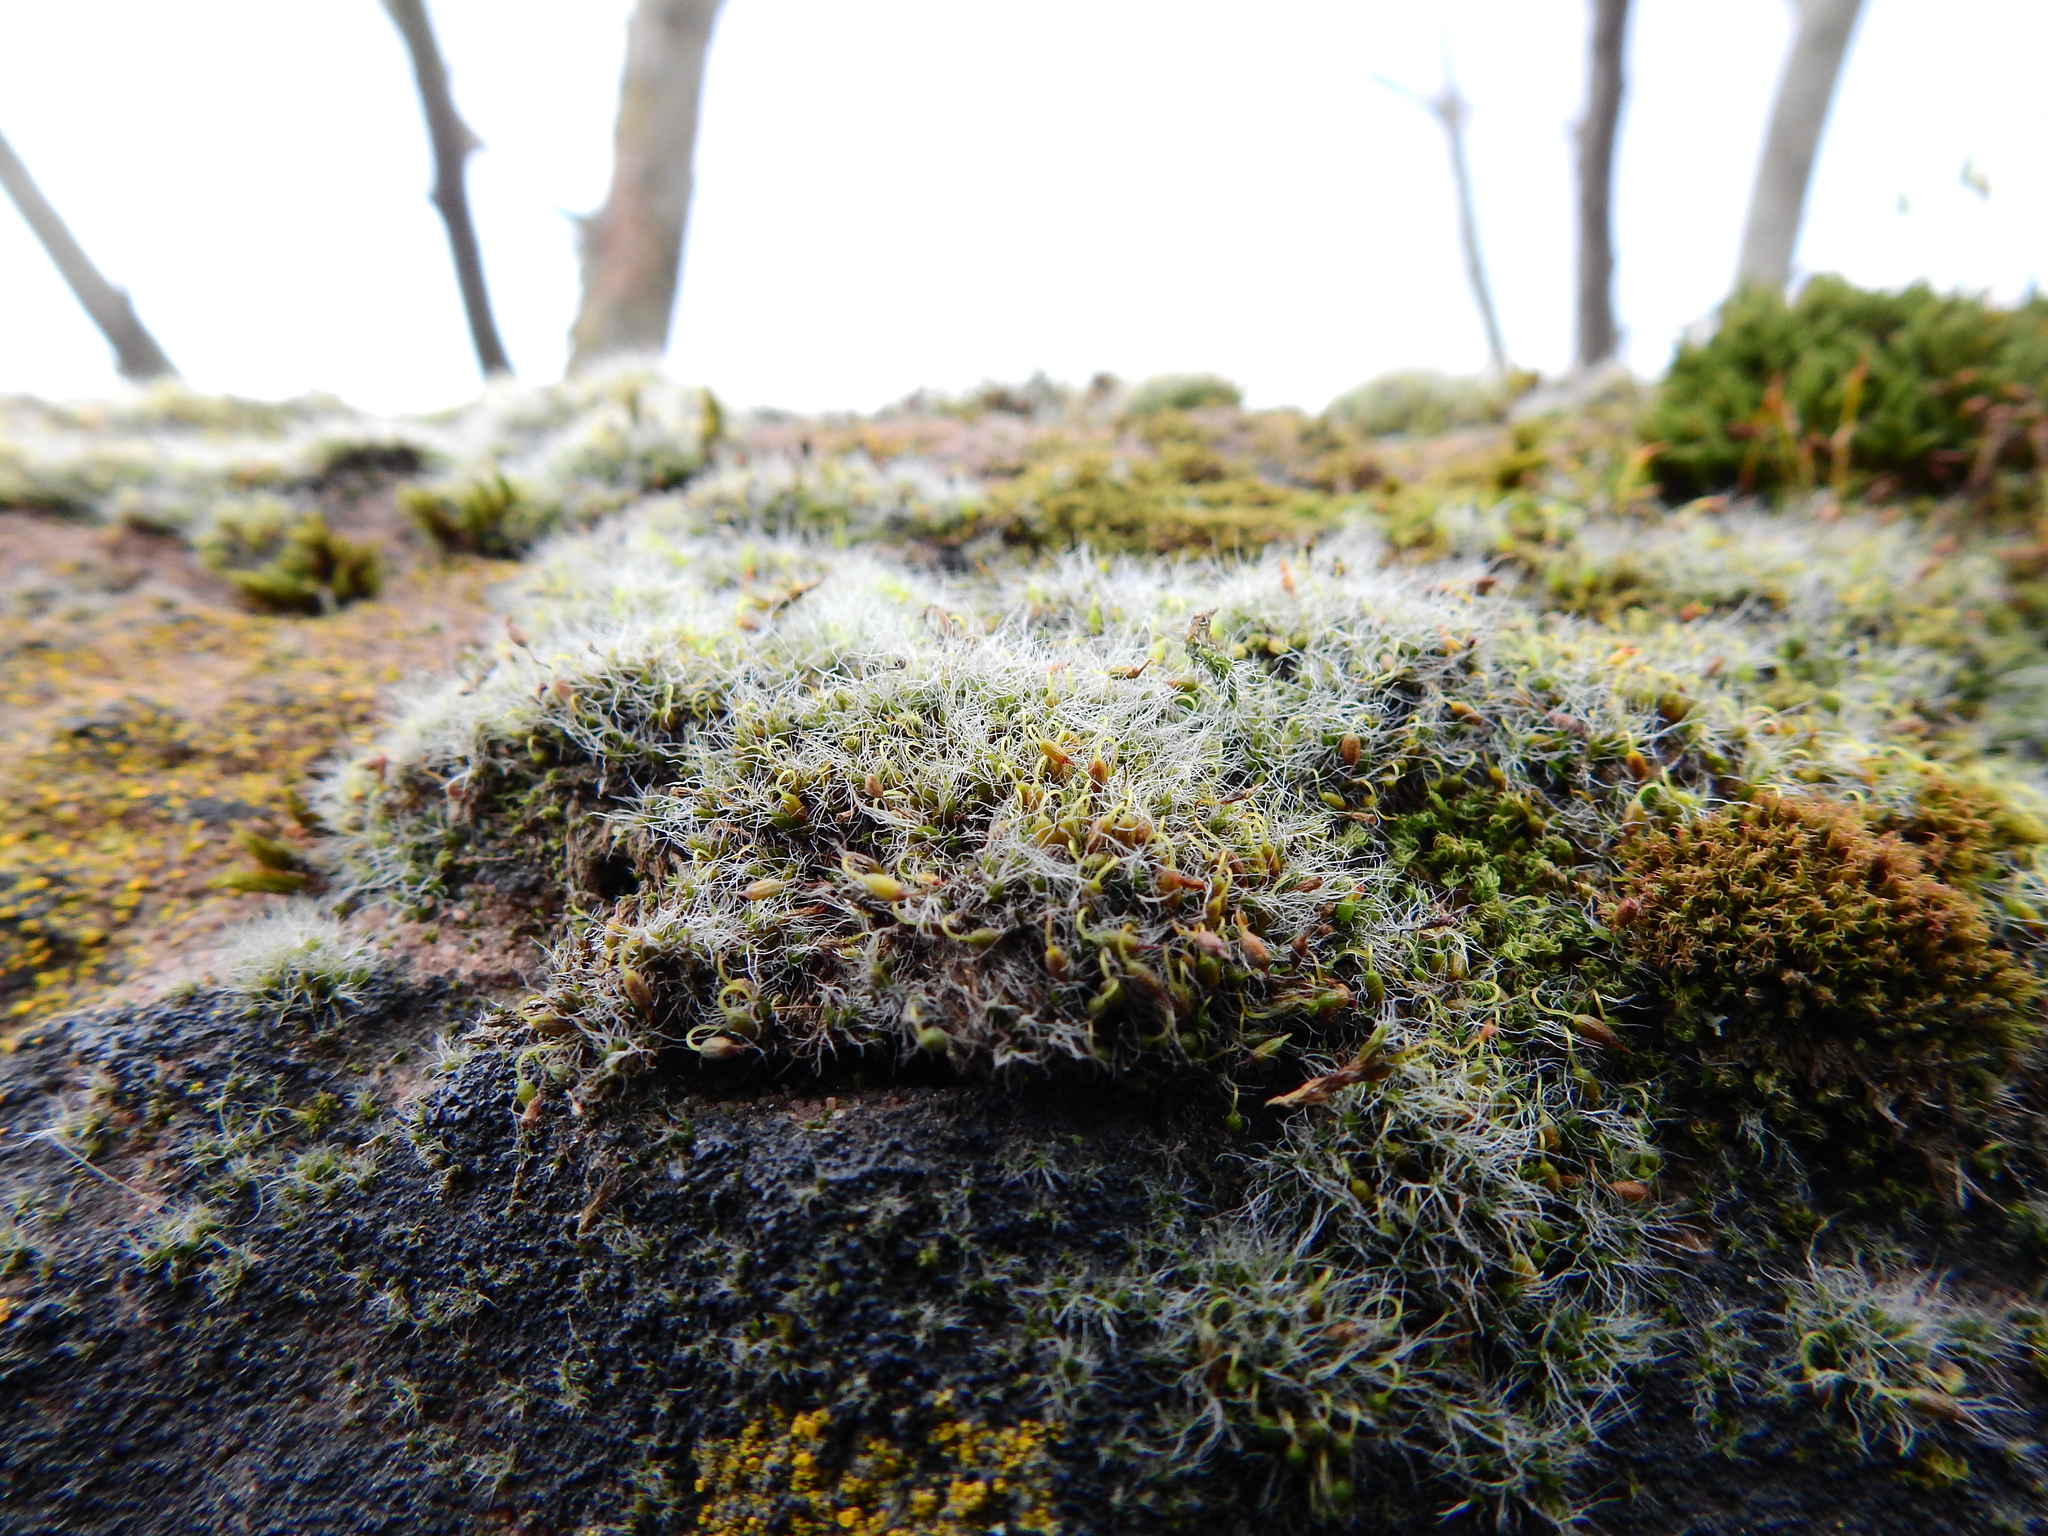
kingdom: Plantae
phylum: Bryophyta
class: Bryopsida
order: Grimmiales
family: Grimmiaceae
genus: Grimmia
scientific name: Grimmia pulvinata
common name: Grey-cushioned grimmia
